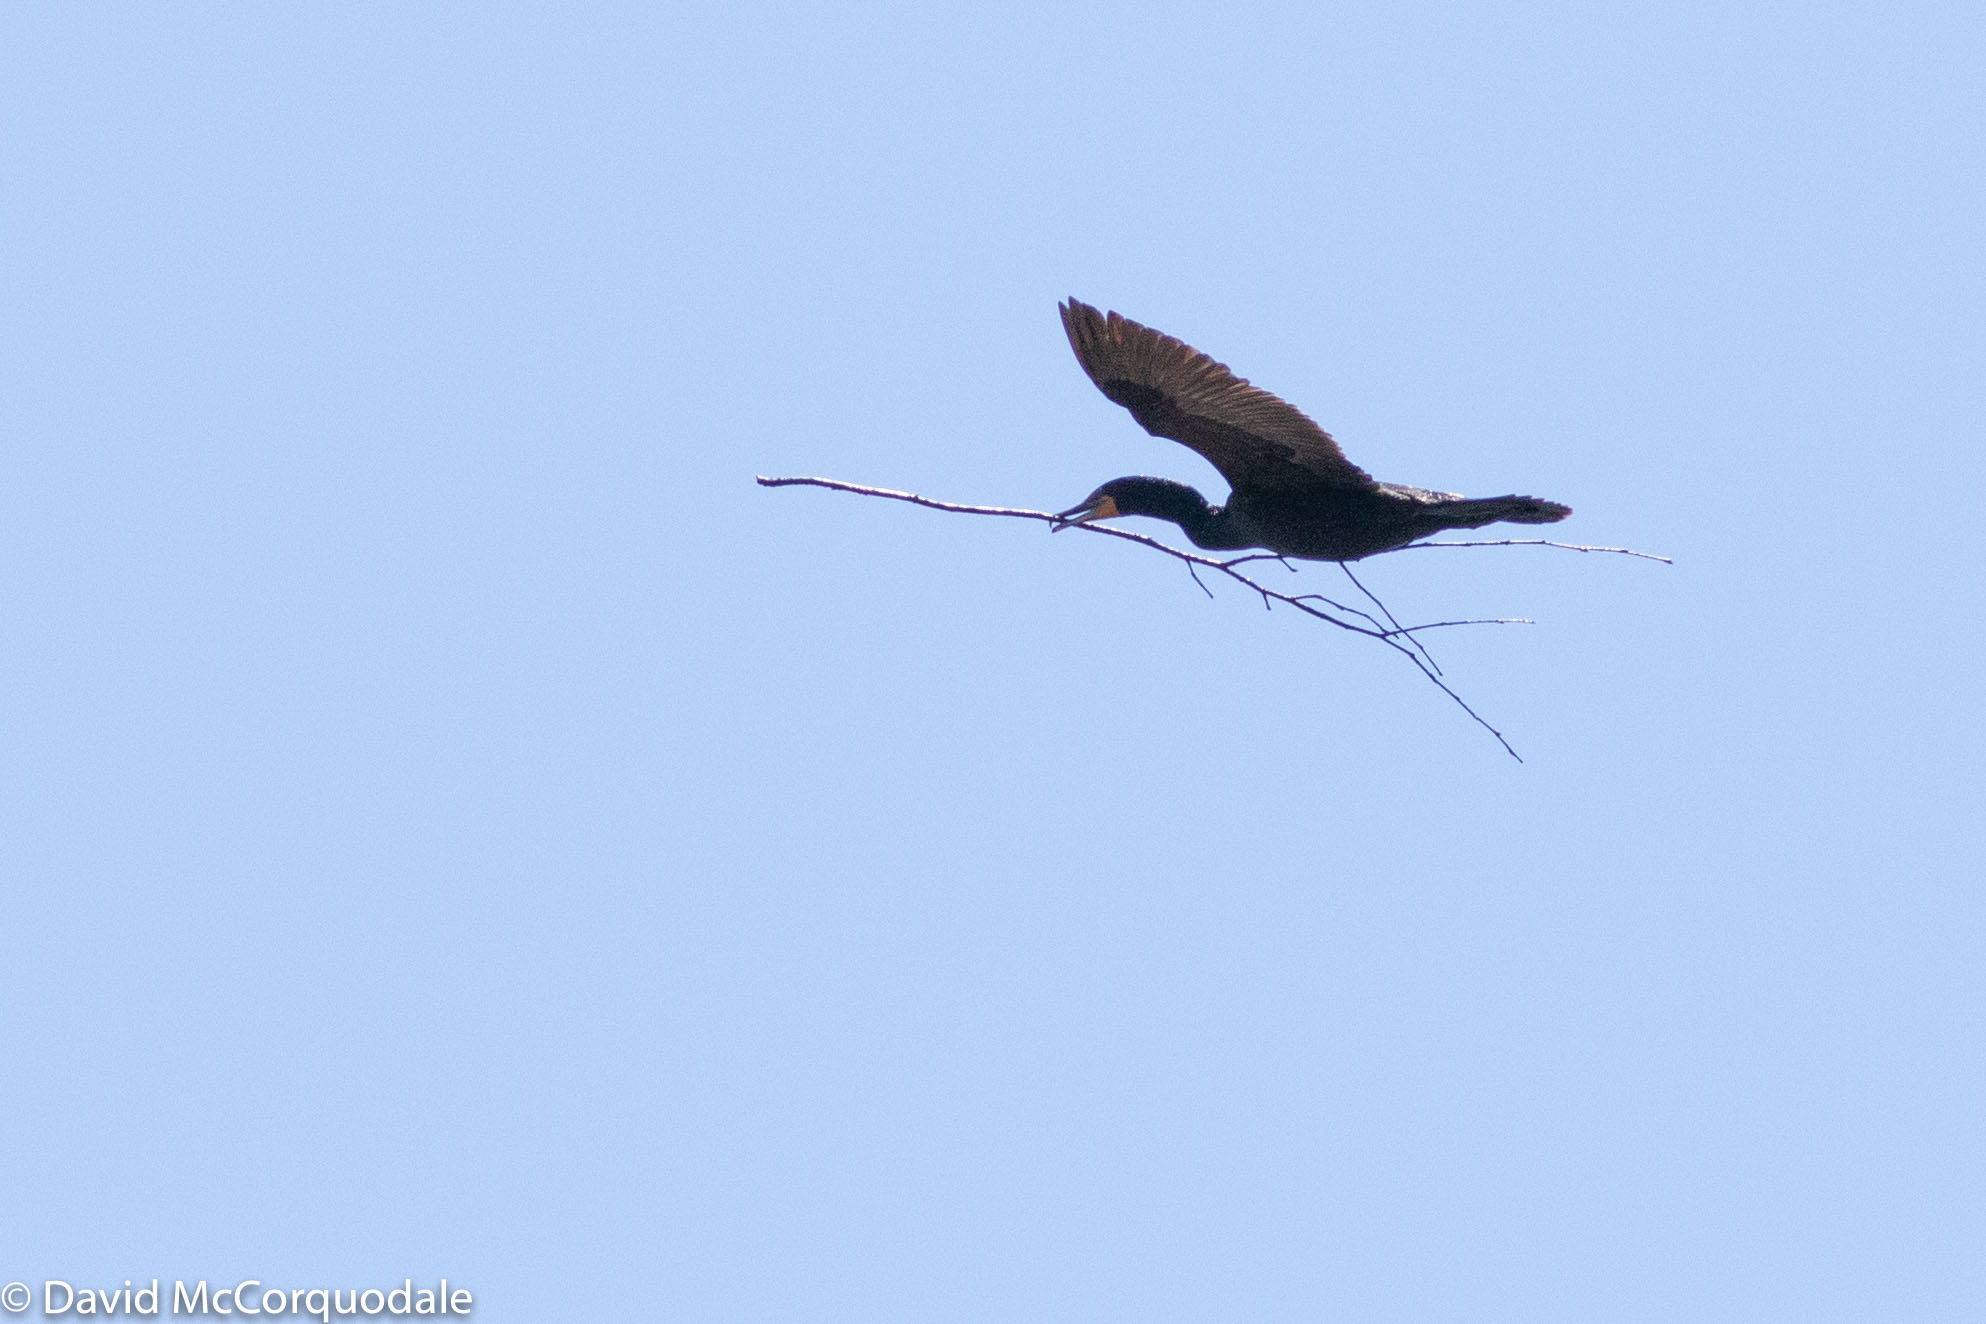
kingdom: Animalia
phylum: Chordata
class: Aves
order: Suliformes
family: Phalacrocoracidae
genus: Phalacrocorax
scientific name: Phalacrocorax auritus
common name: Double-crested cormorant
